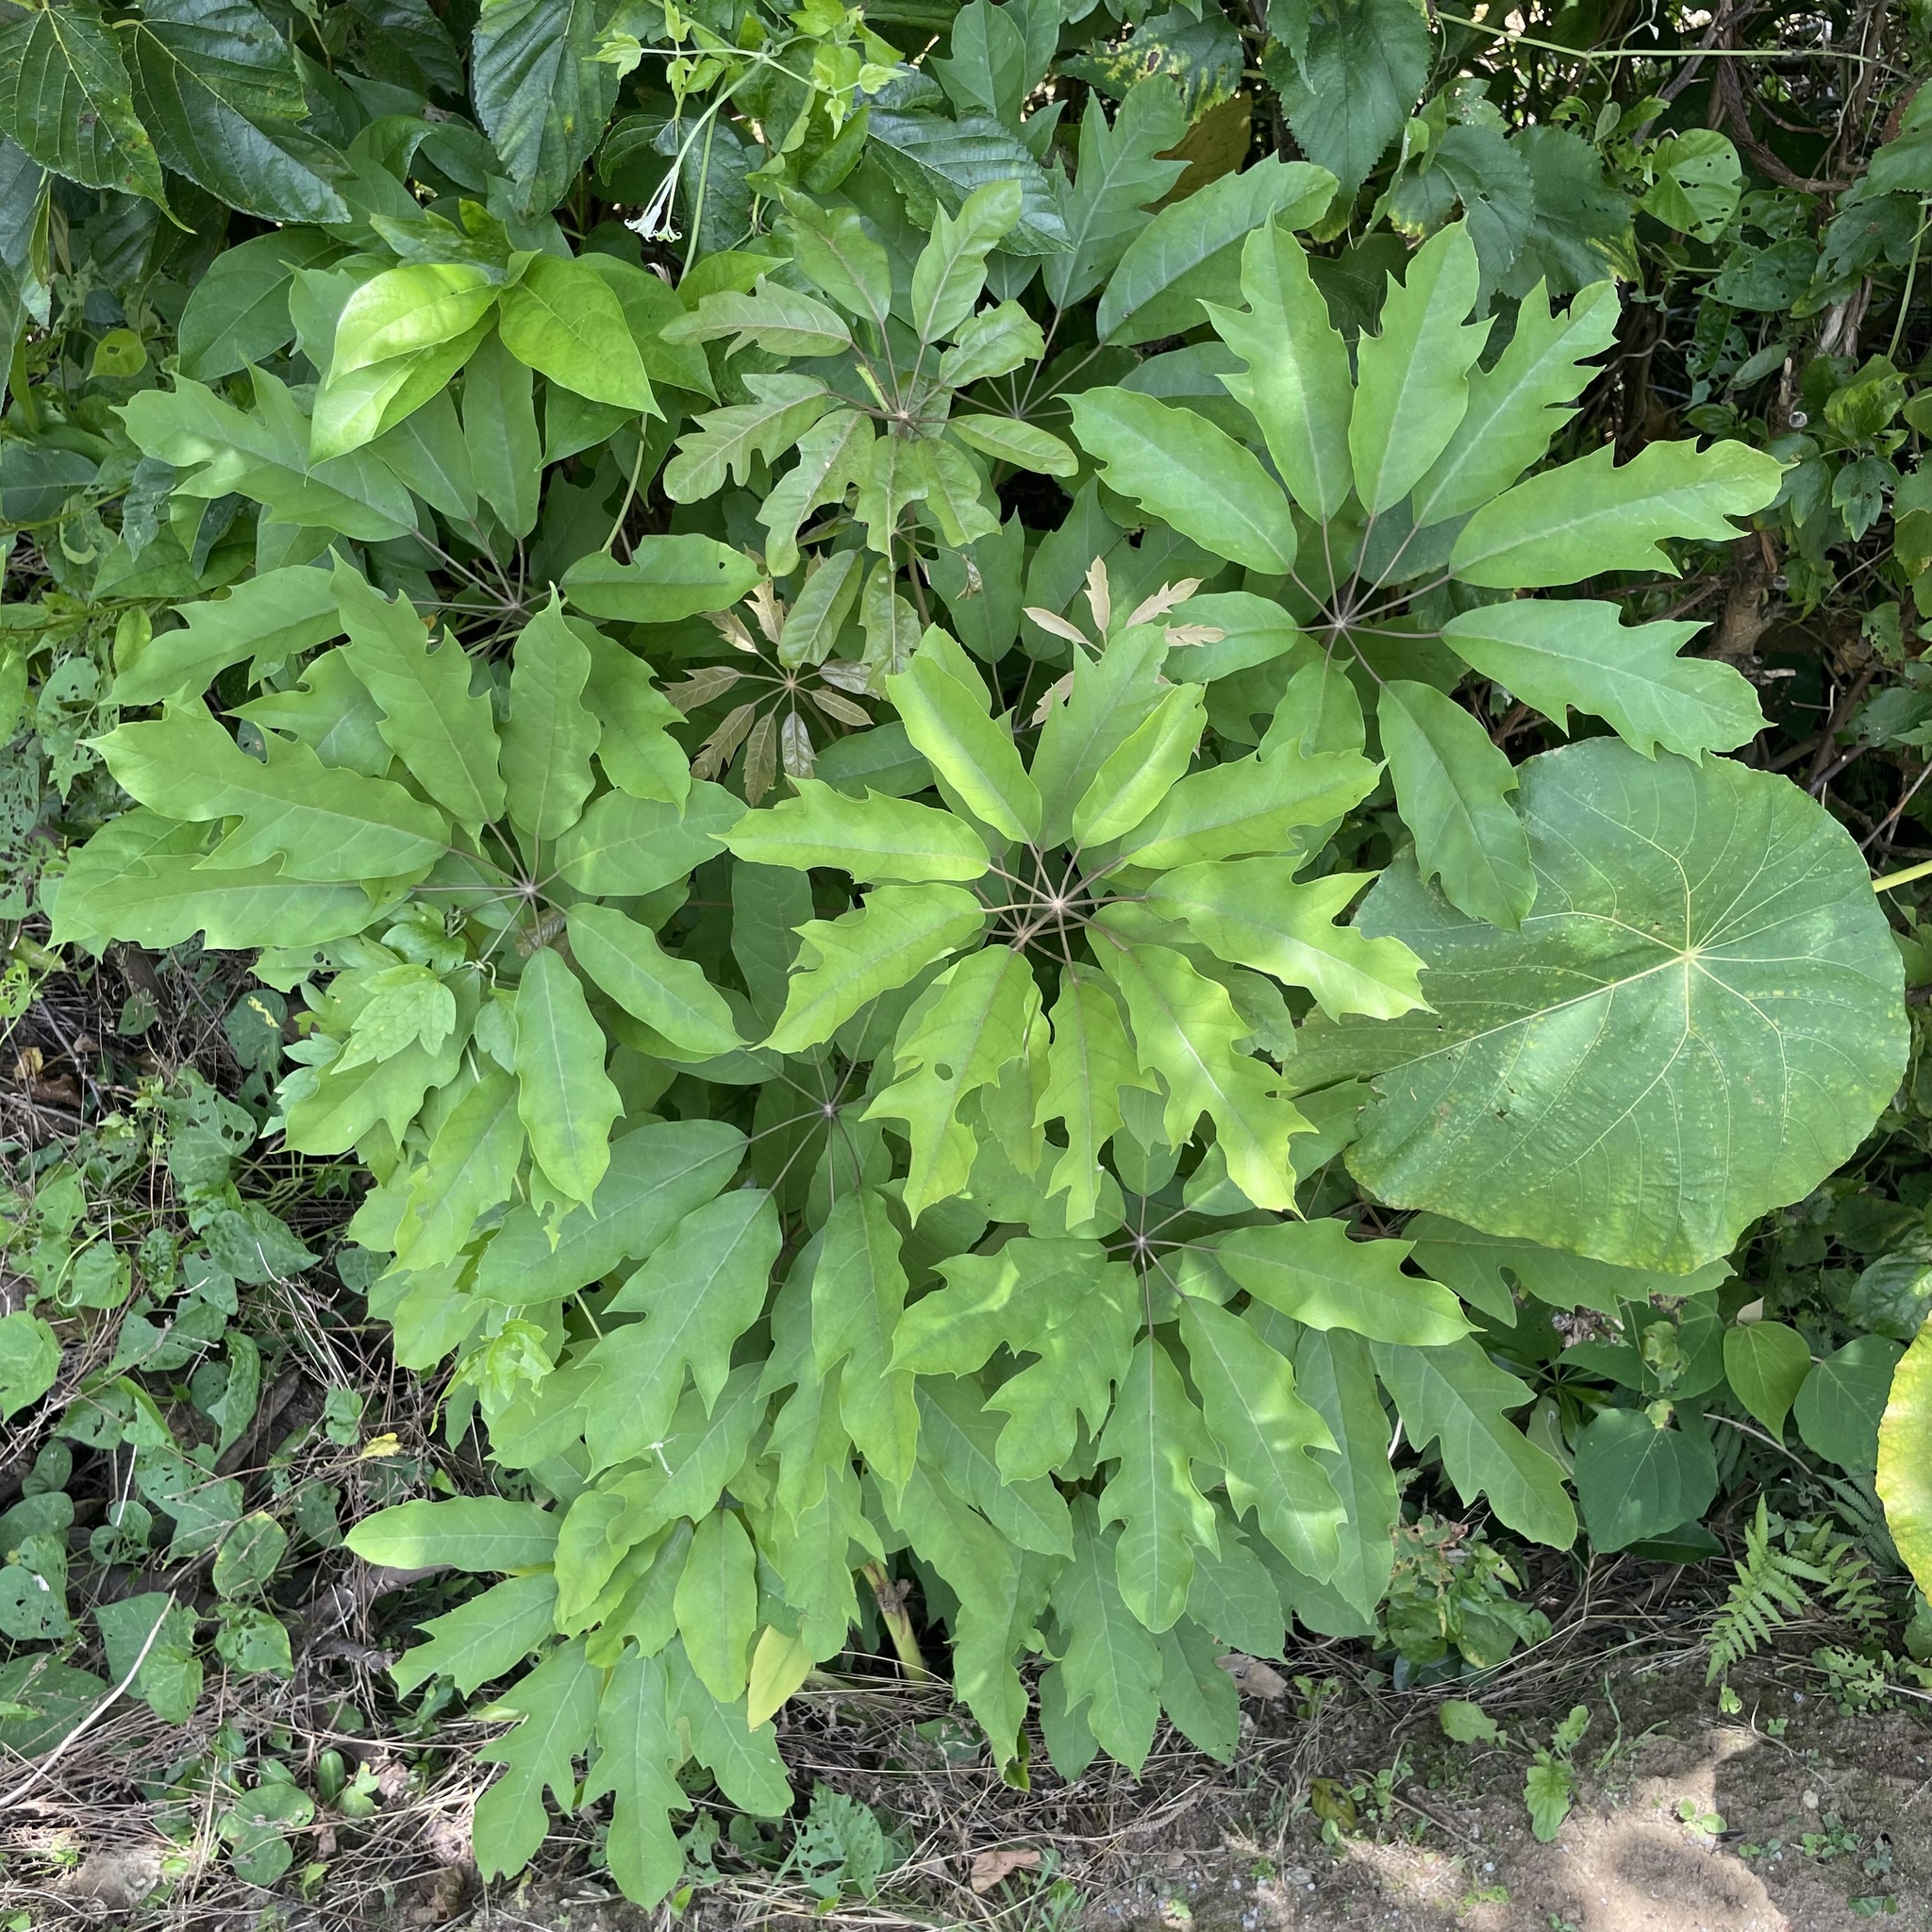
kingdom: Plantae
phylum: Tracheophyta
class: Magnoliopsida
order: Apiales
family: Araliaceae
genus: Heptapleurum
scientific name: Heptapleurum heptaphyllum
